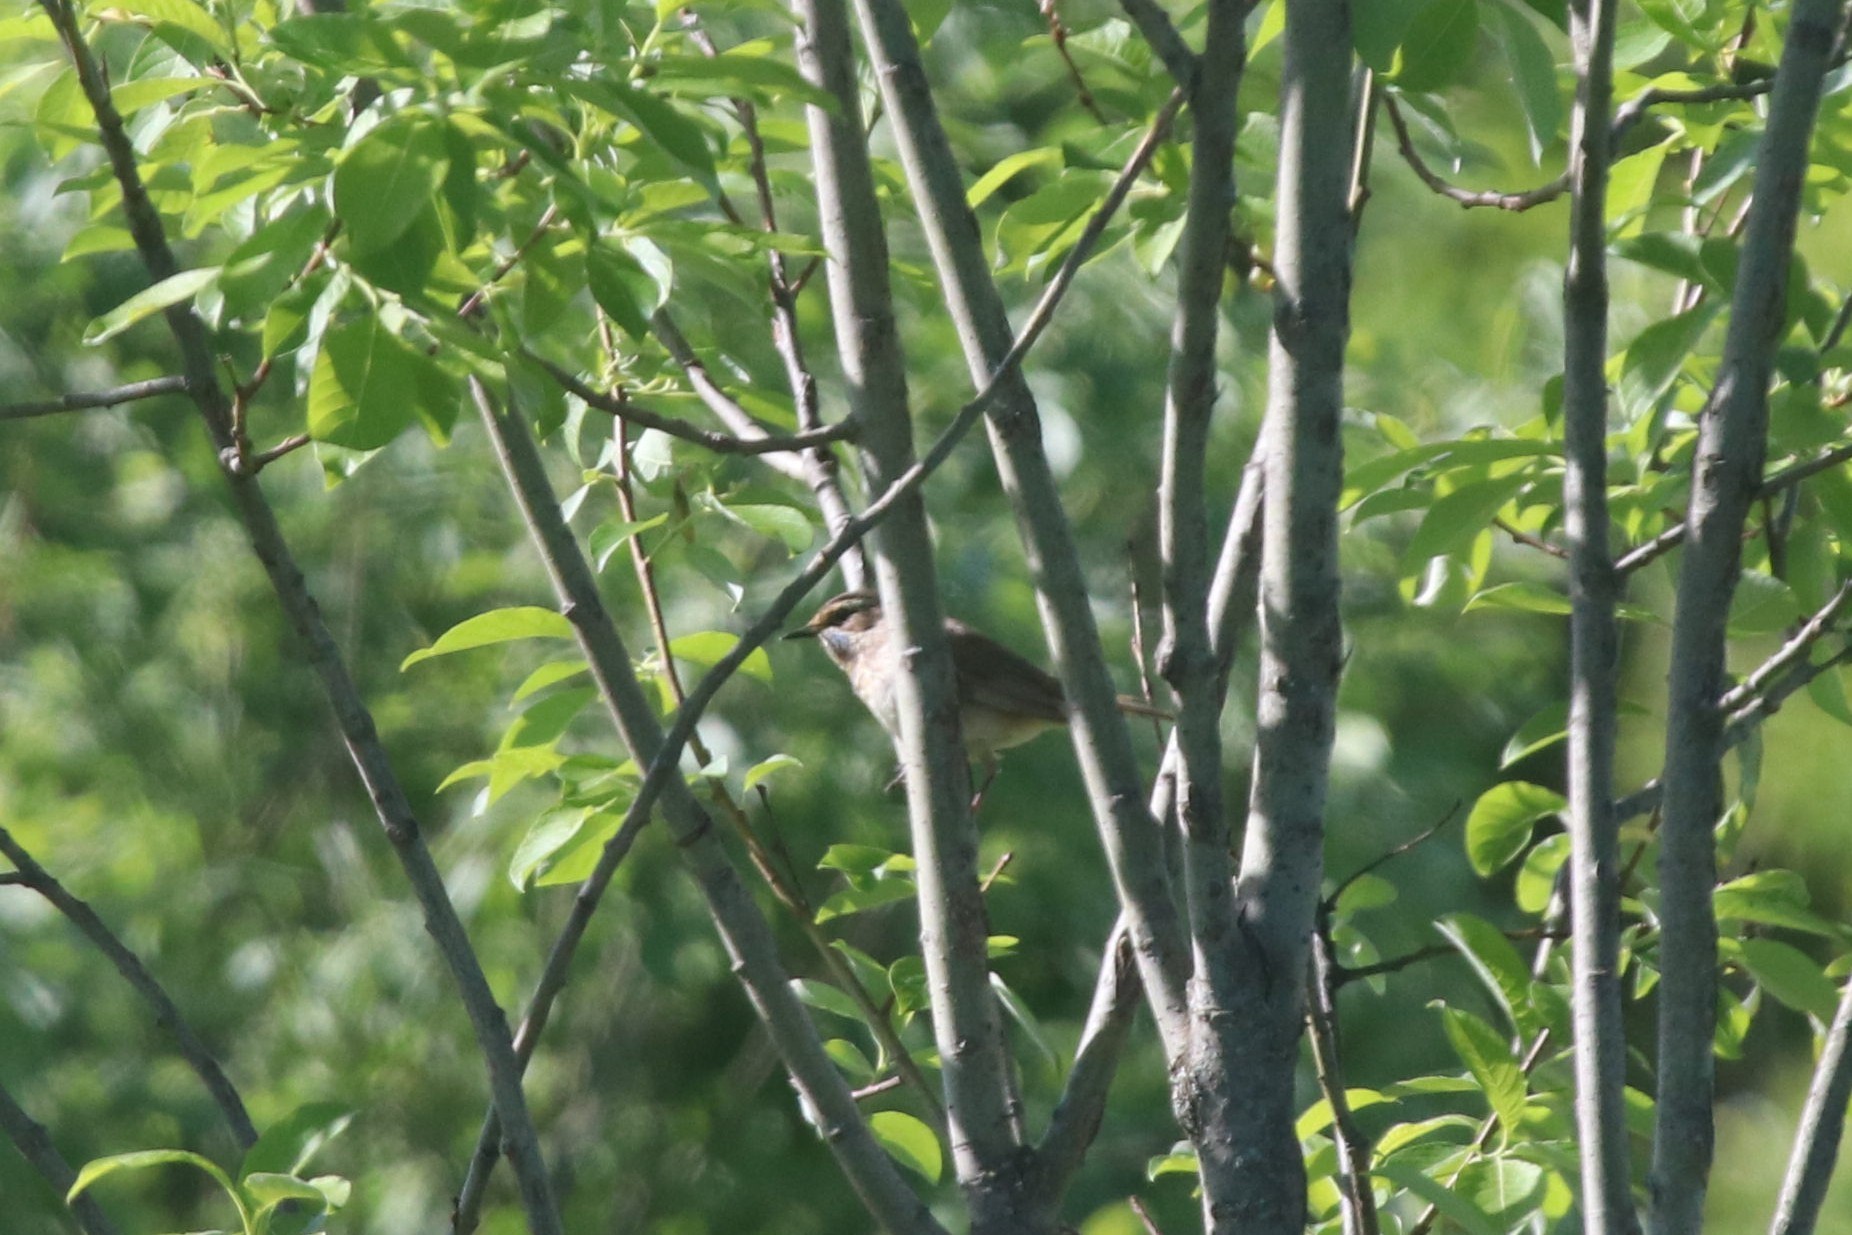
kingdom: Animalia
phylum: Chordata
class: Aves
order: Passeriformes
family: Muscicapidae
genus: Luscinia
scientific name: Luscinia svecica
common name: Bluethroat
